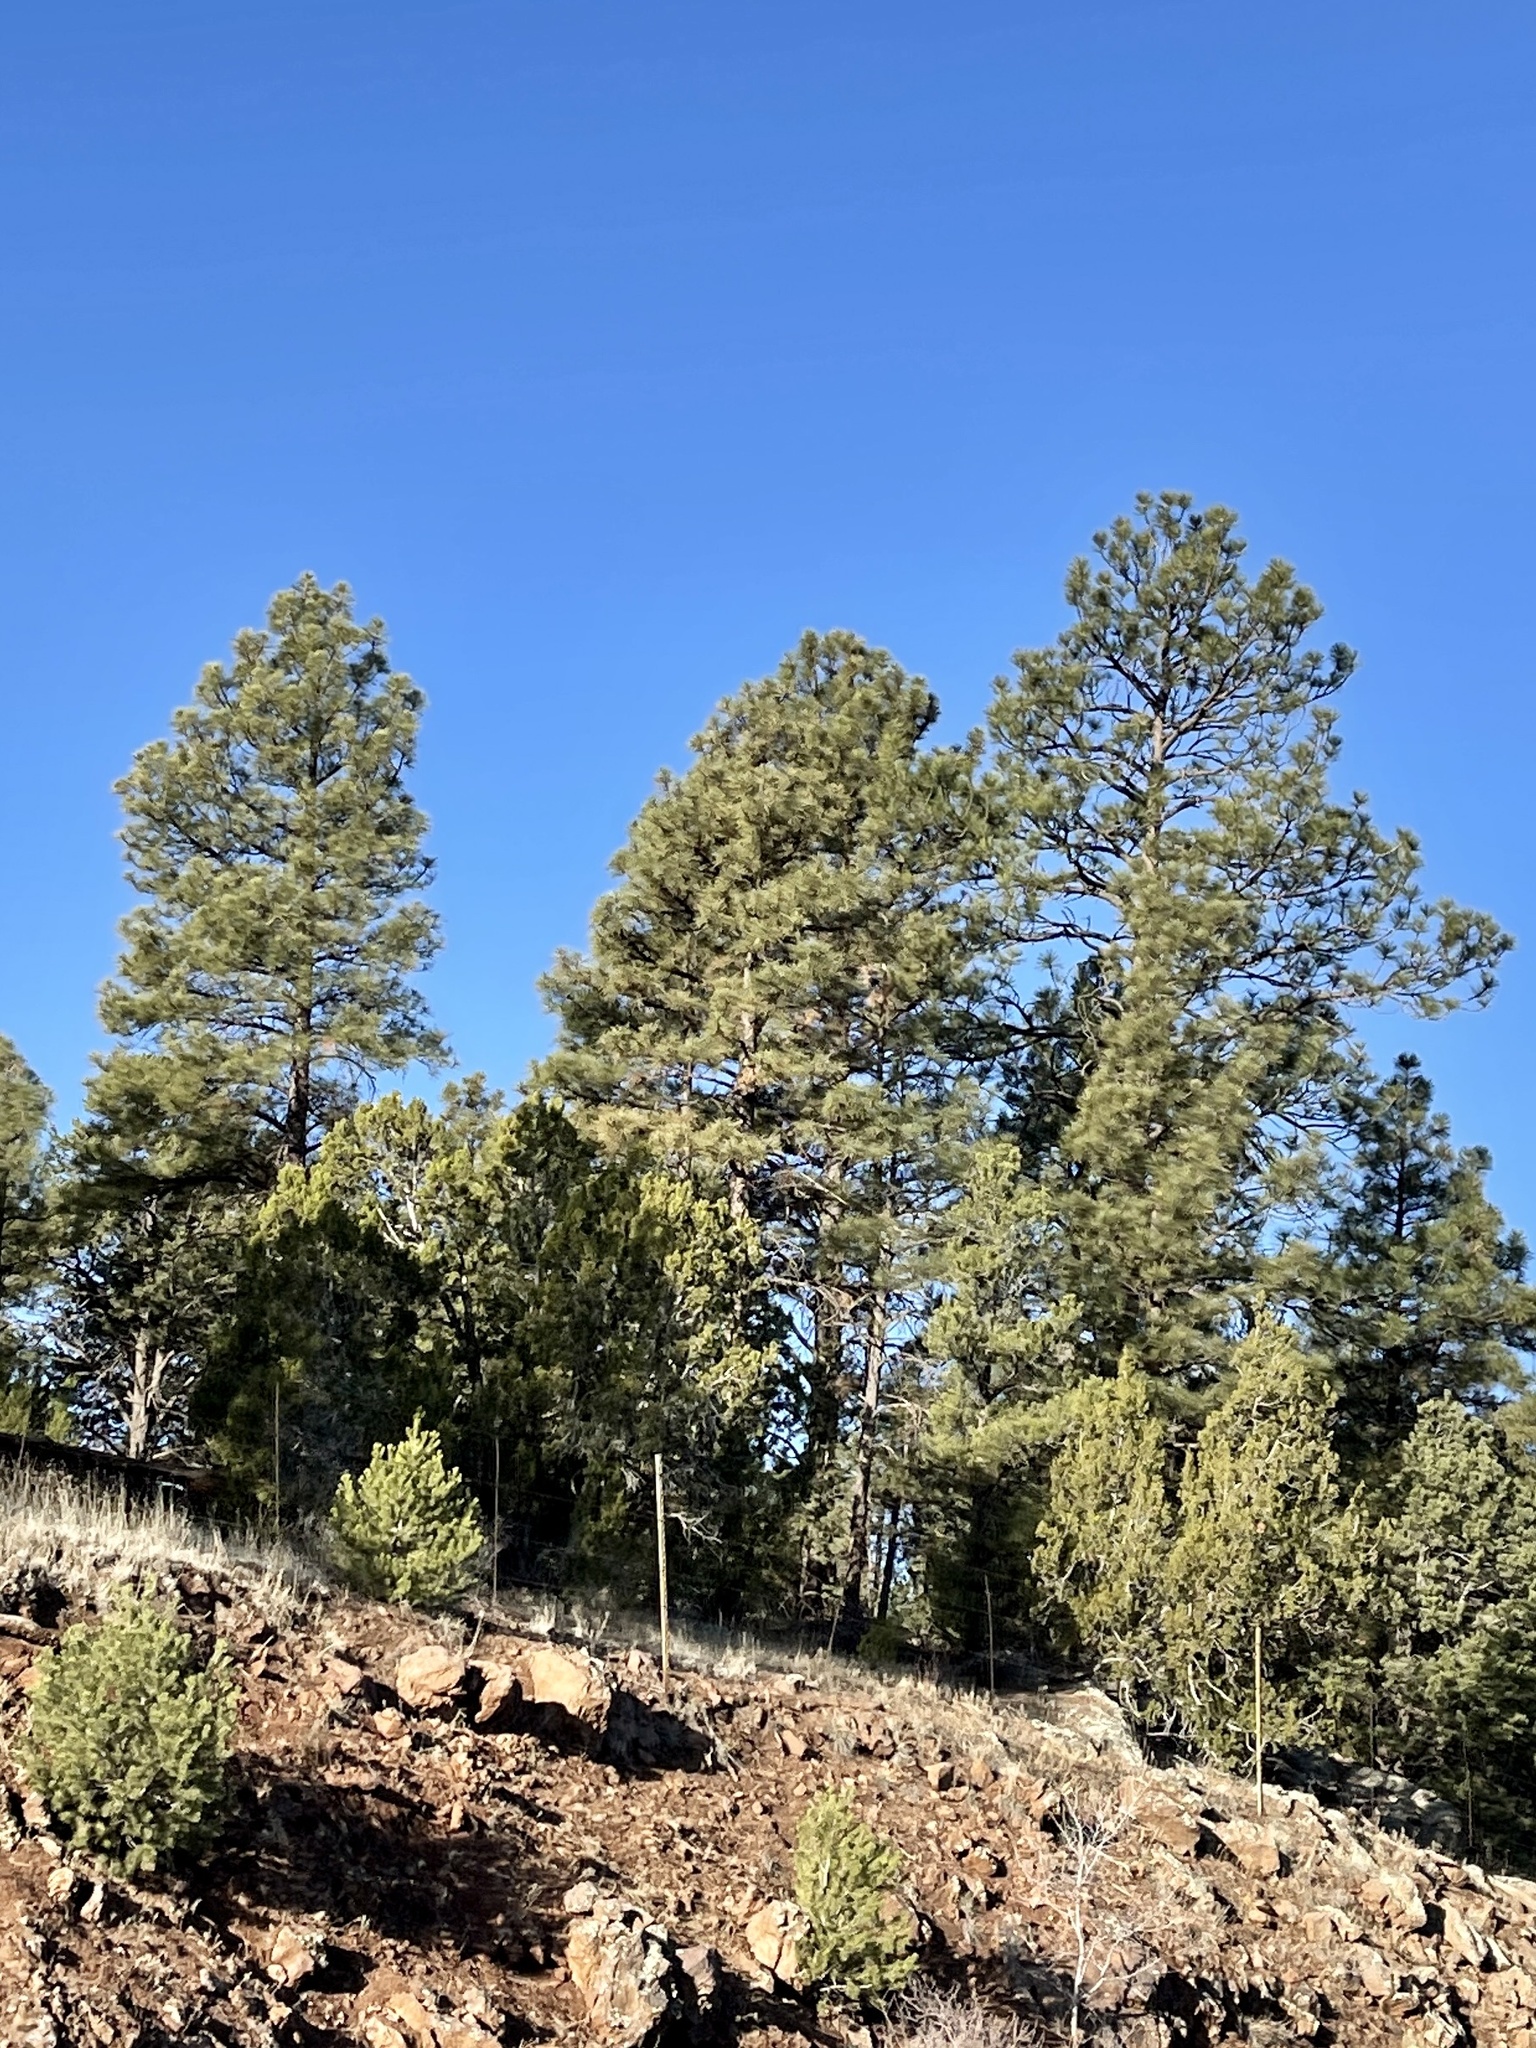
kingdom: Plantae
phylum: Tracheophyta
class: Pinopsida
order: Pinales
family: Pinaceae
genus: Pinus
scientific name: Pinus ponderosa
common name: Western yellow-pine
